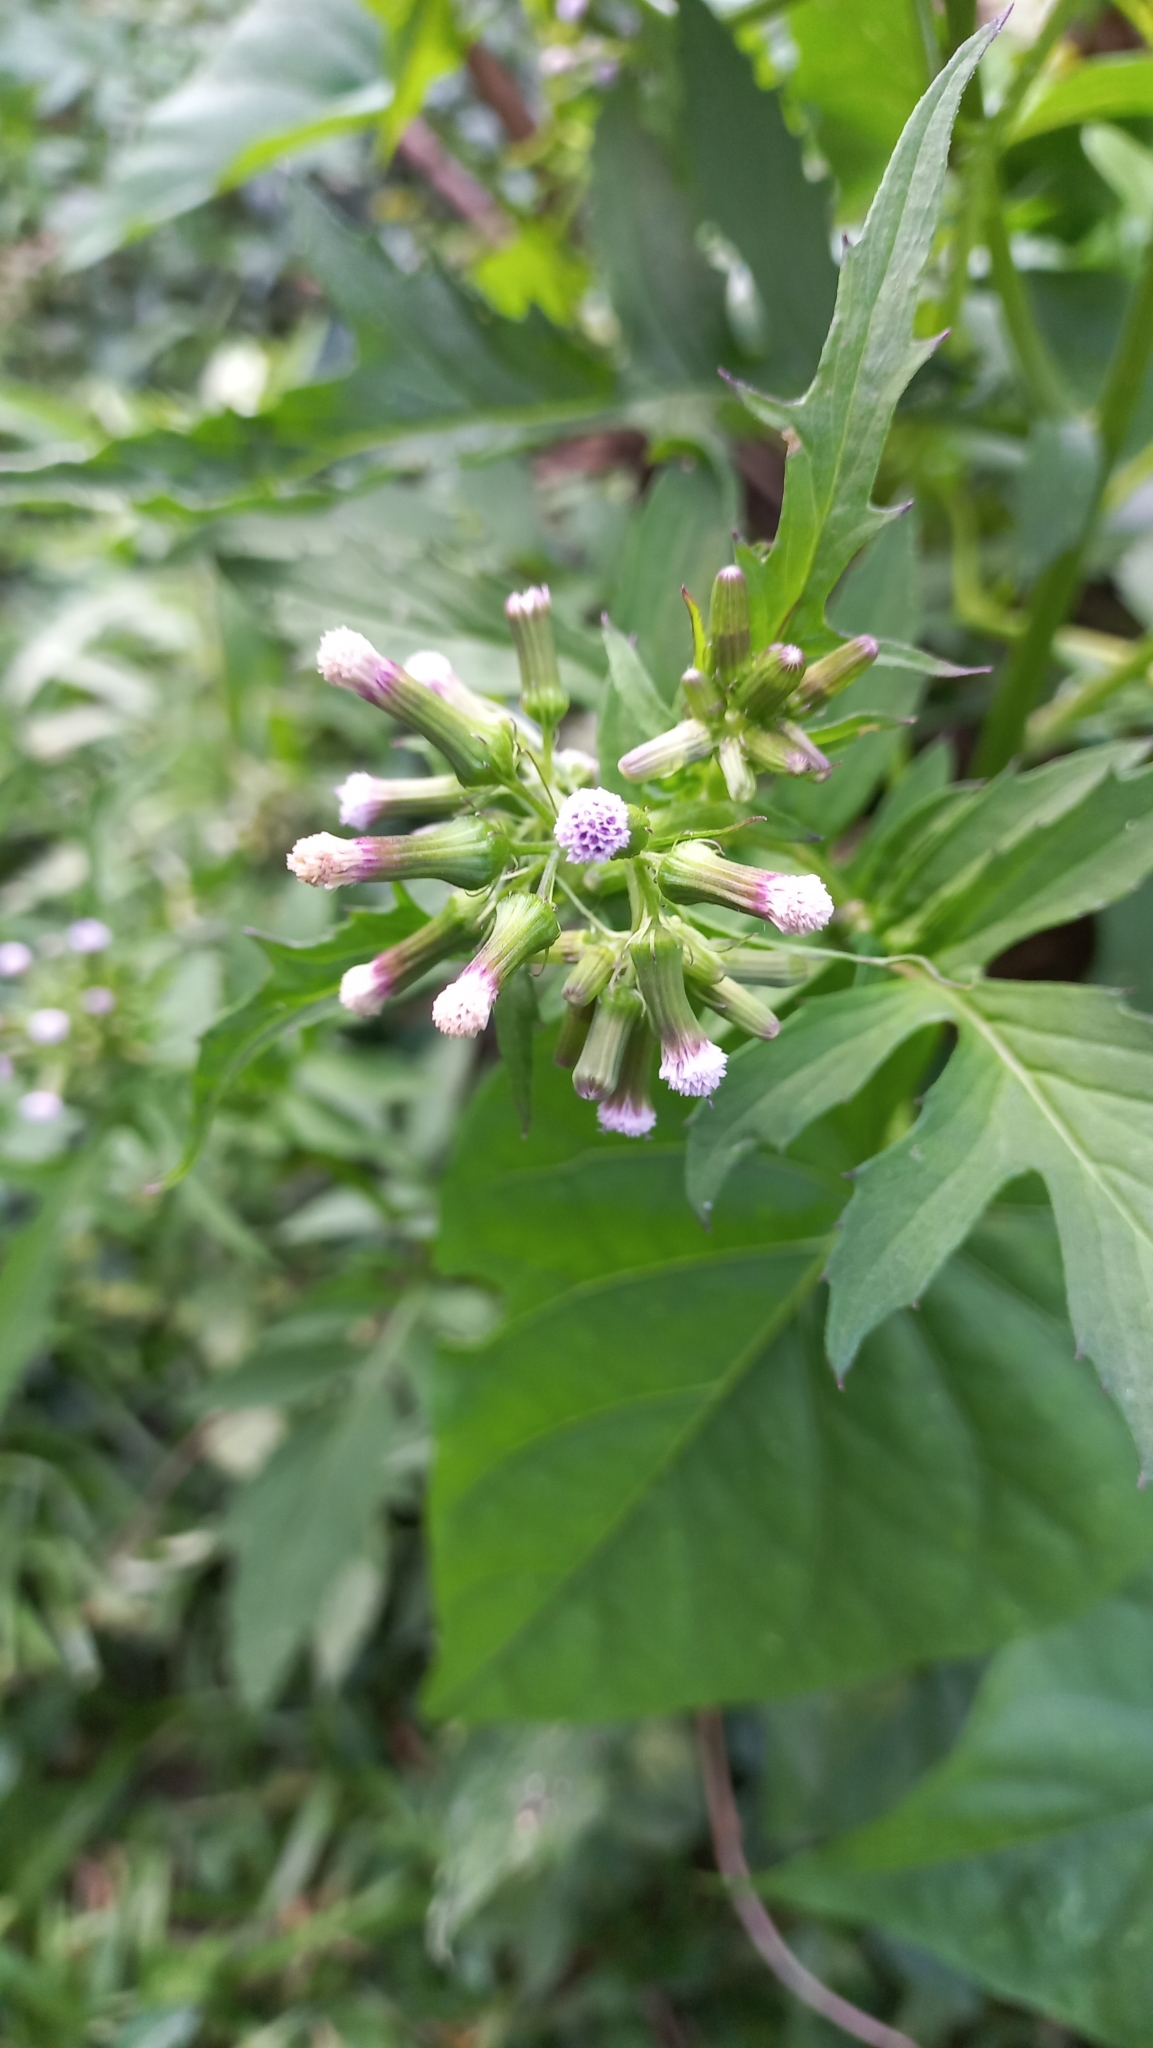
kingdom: Plantae
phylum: Tracheophyta
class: Magnoliopsida
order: Asterales
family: Asteraceae
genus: Erechtites
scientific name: Erechtites valerianifolius
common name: Tropical burnweed
